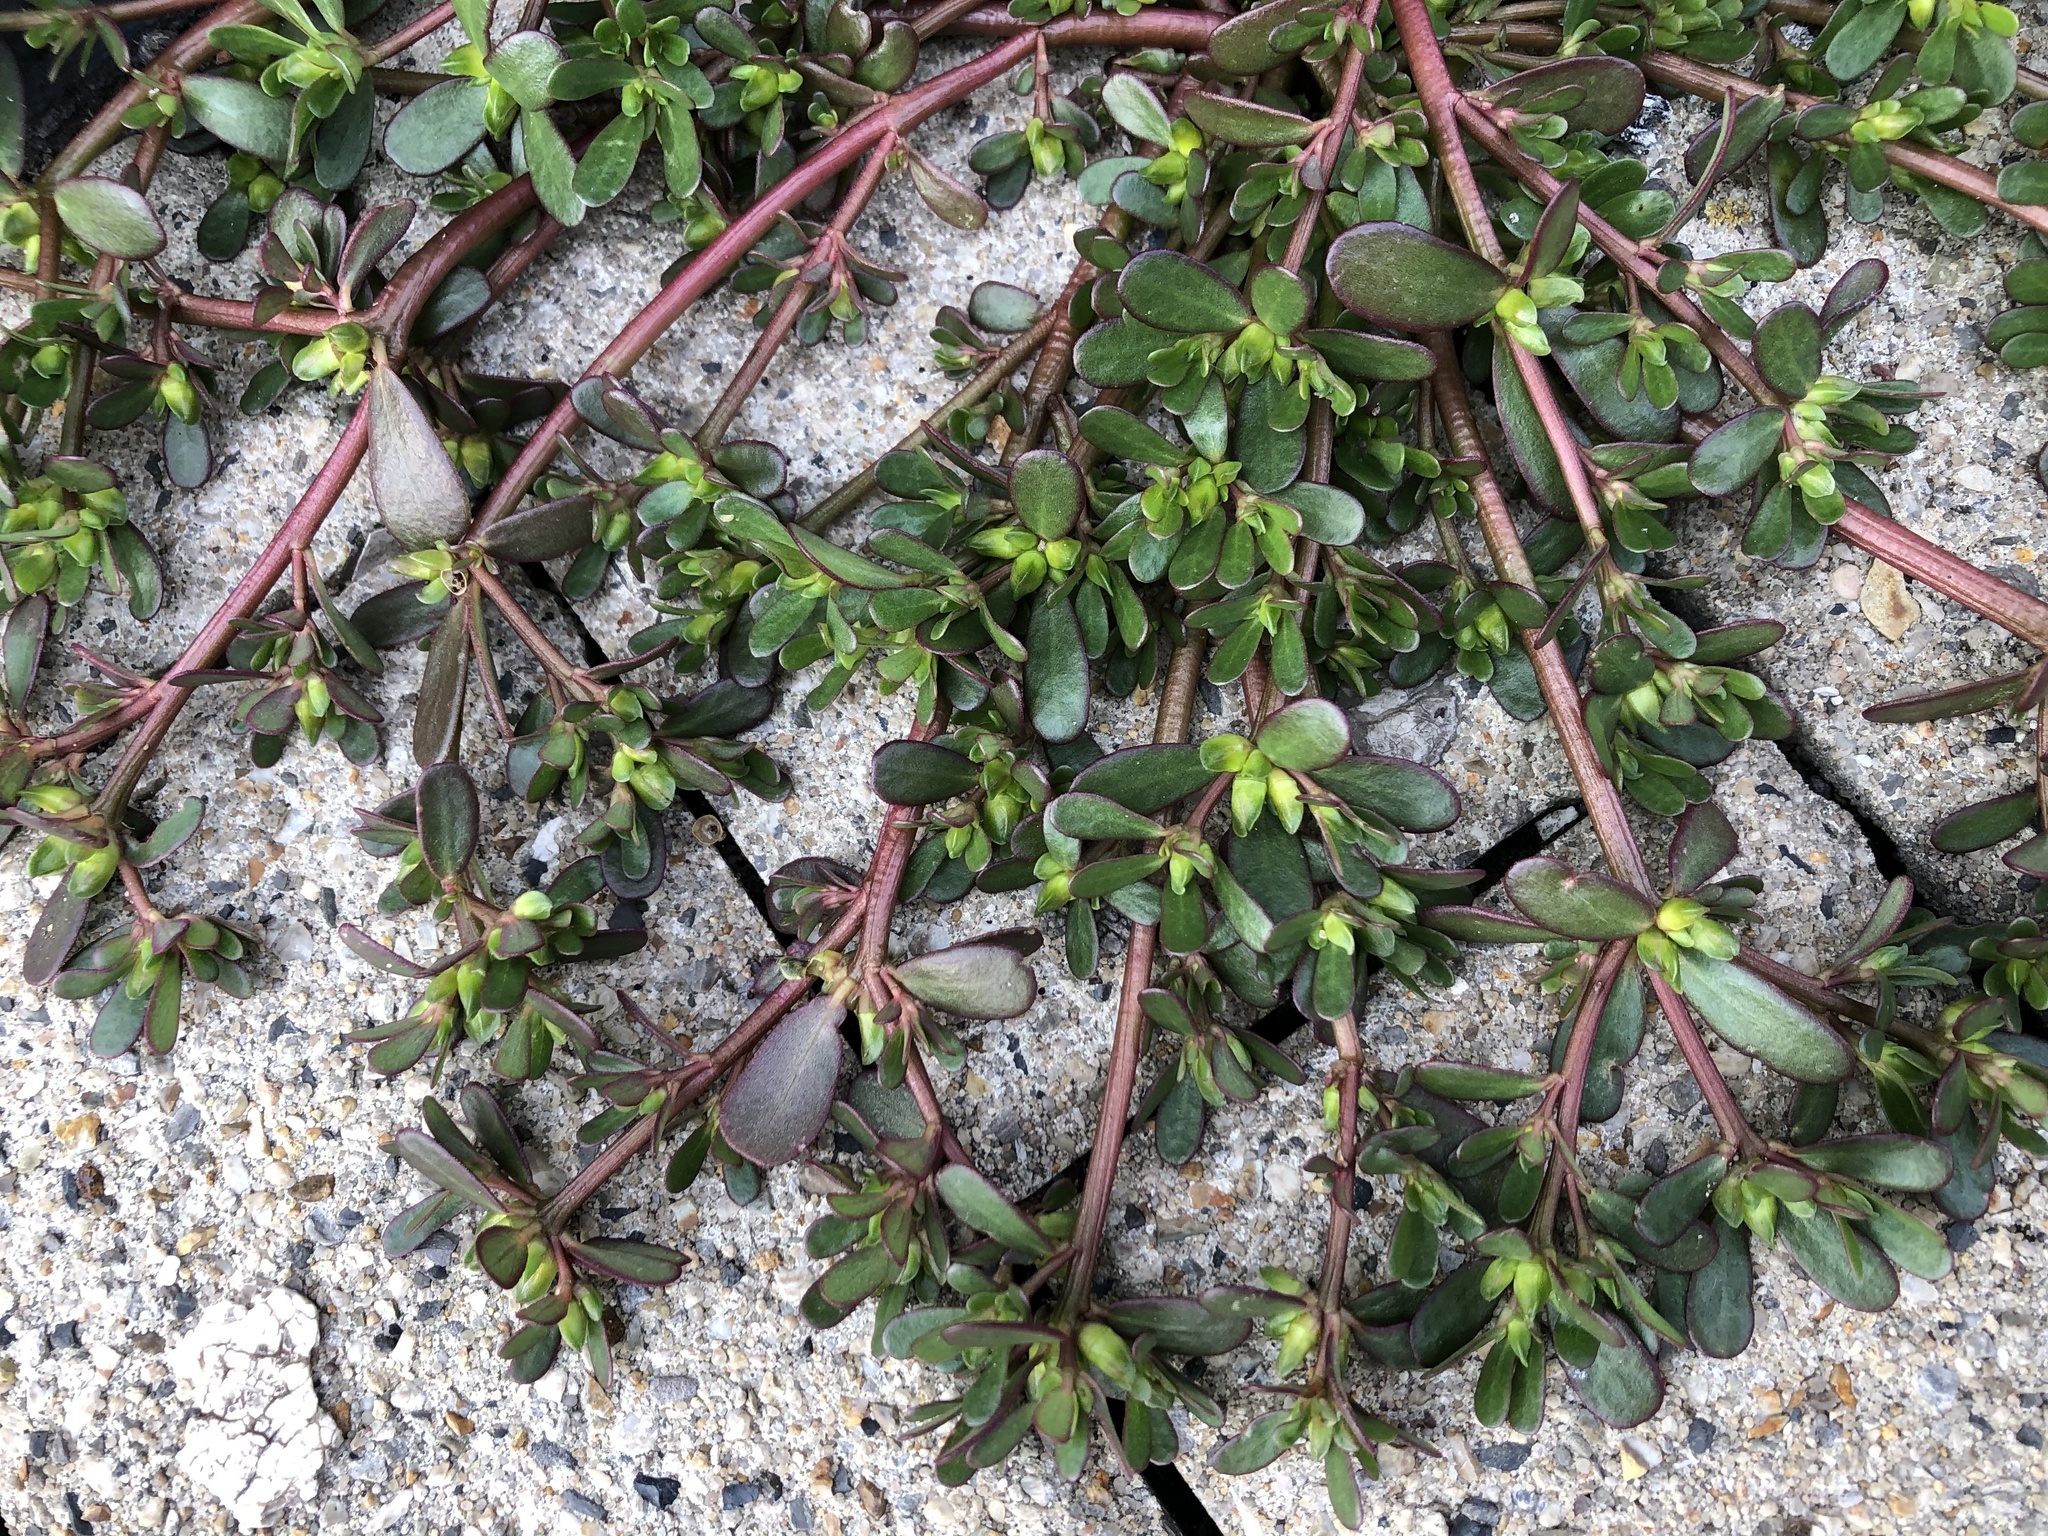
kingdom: Plantae
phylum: Tracheophyta
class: Magnoliopsida
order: Caryophyllales
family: Portulacaceae
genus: Portulaca
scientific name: Portulaca oleracea
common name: Common purslane
